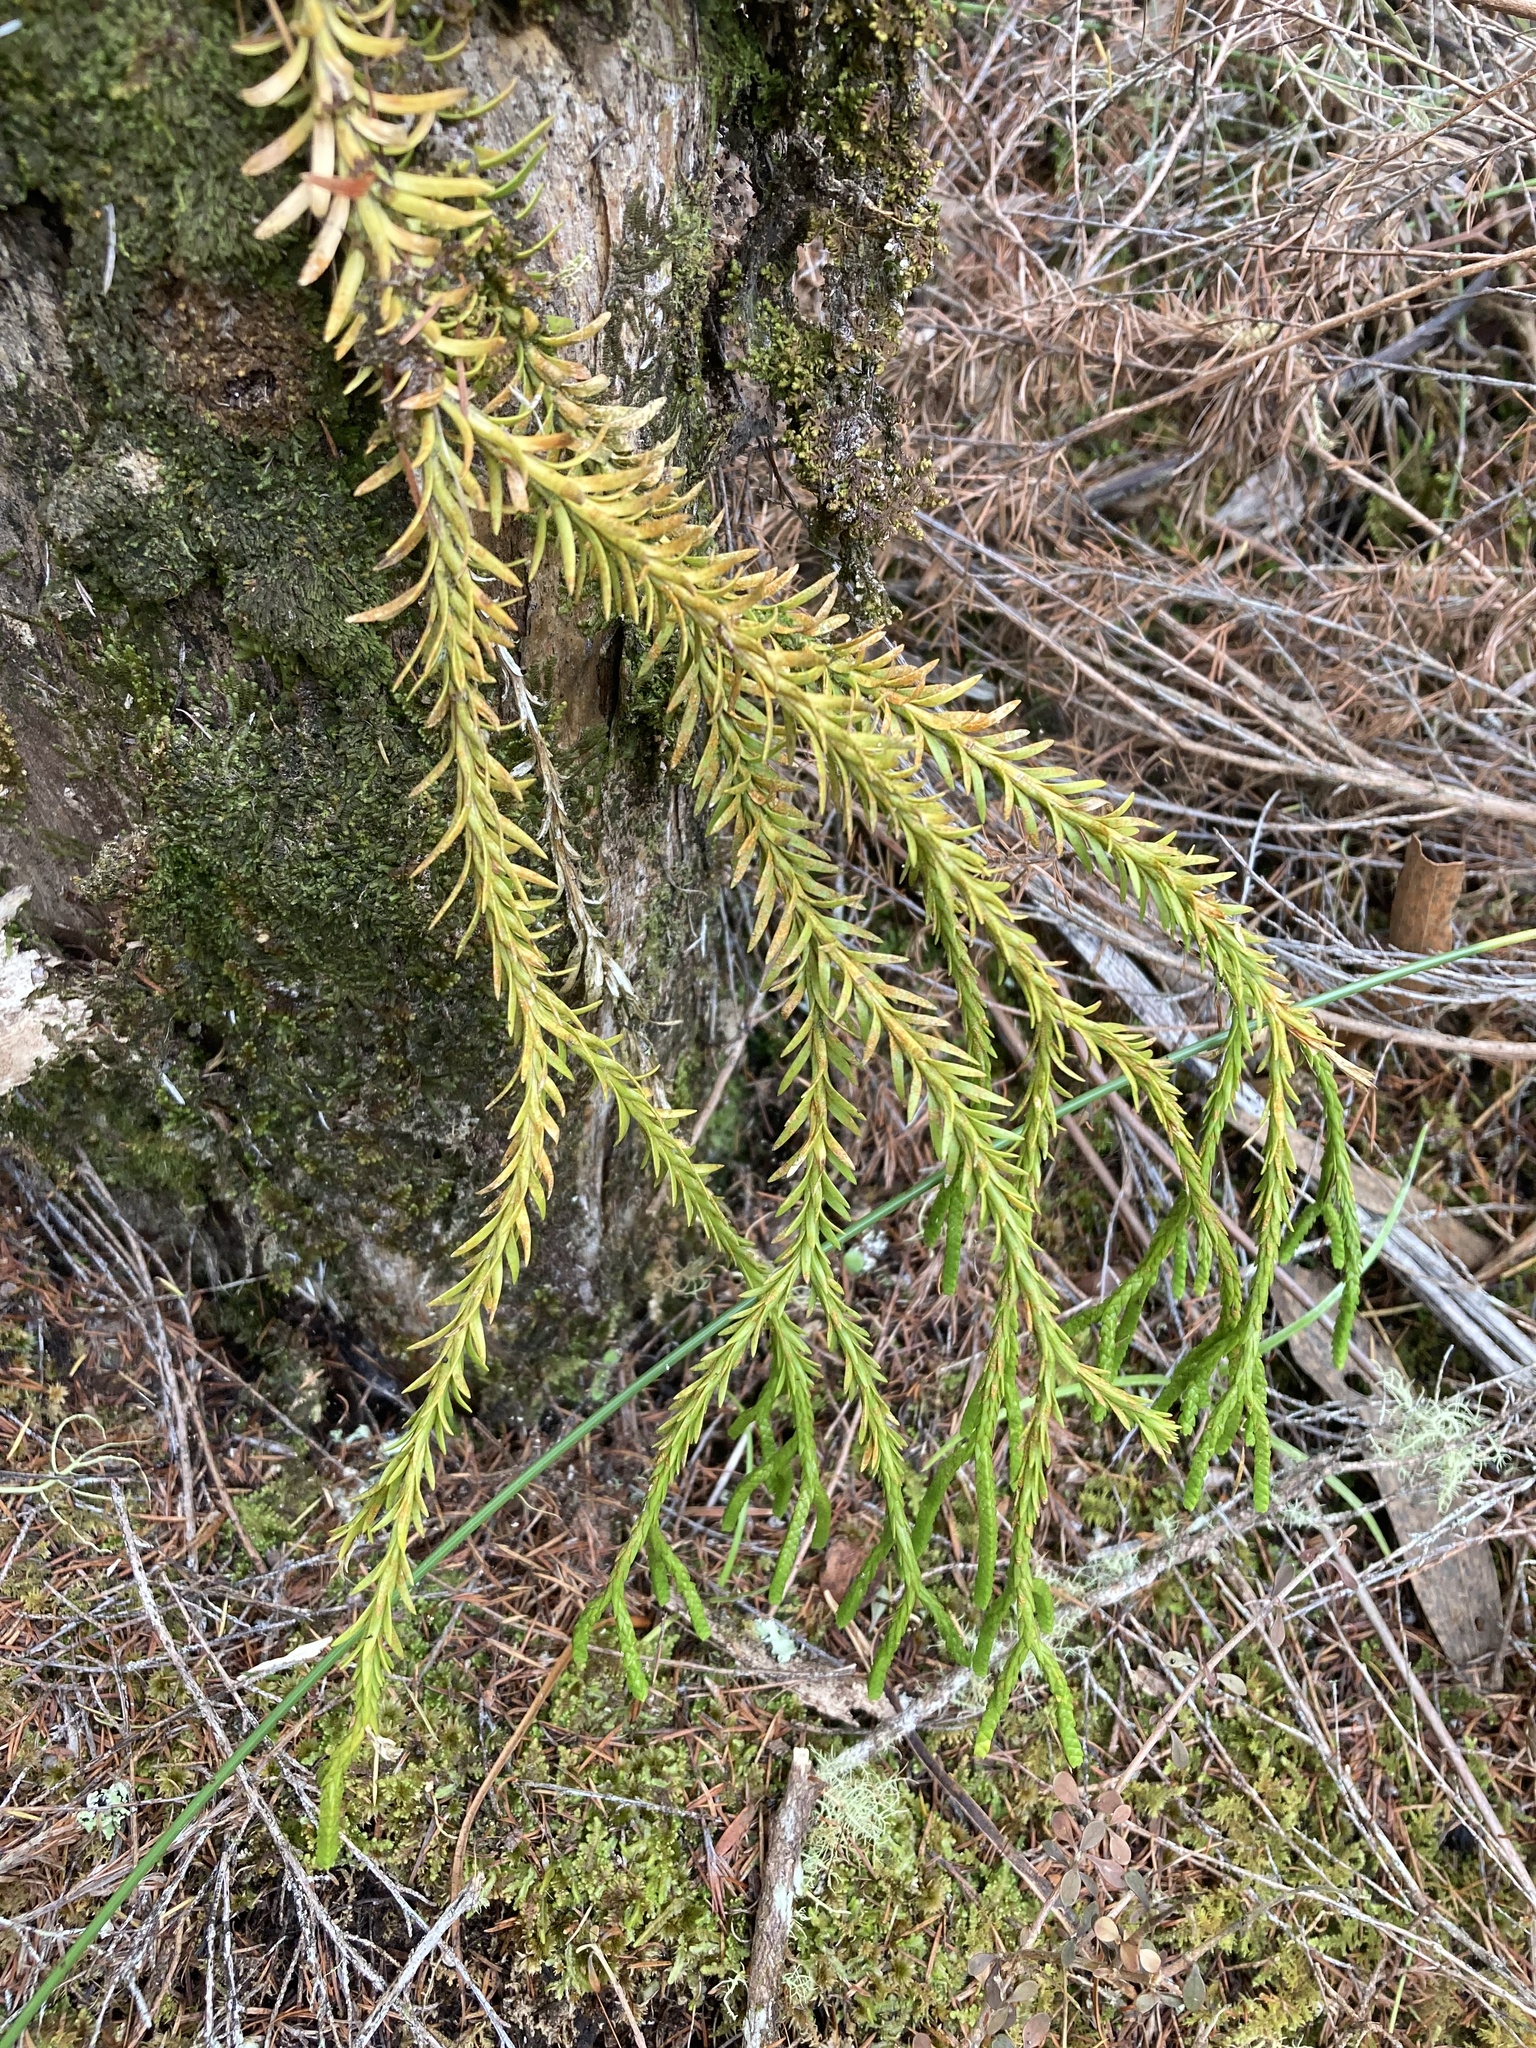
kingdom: Plantae
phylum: Tracheophyta
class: Lycopodiopsida
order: Lycopodiales
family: Lycopodiaceae
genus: Phlegmariurus
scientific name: Phlegmariurus billardierei
